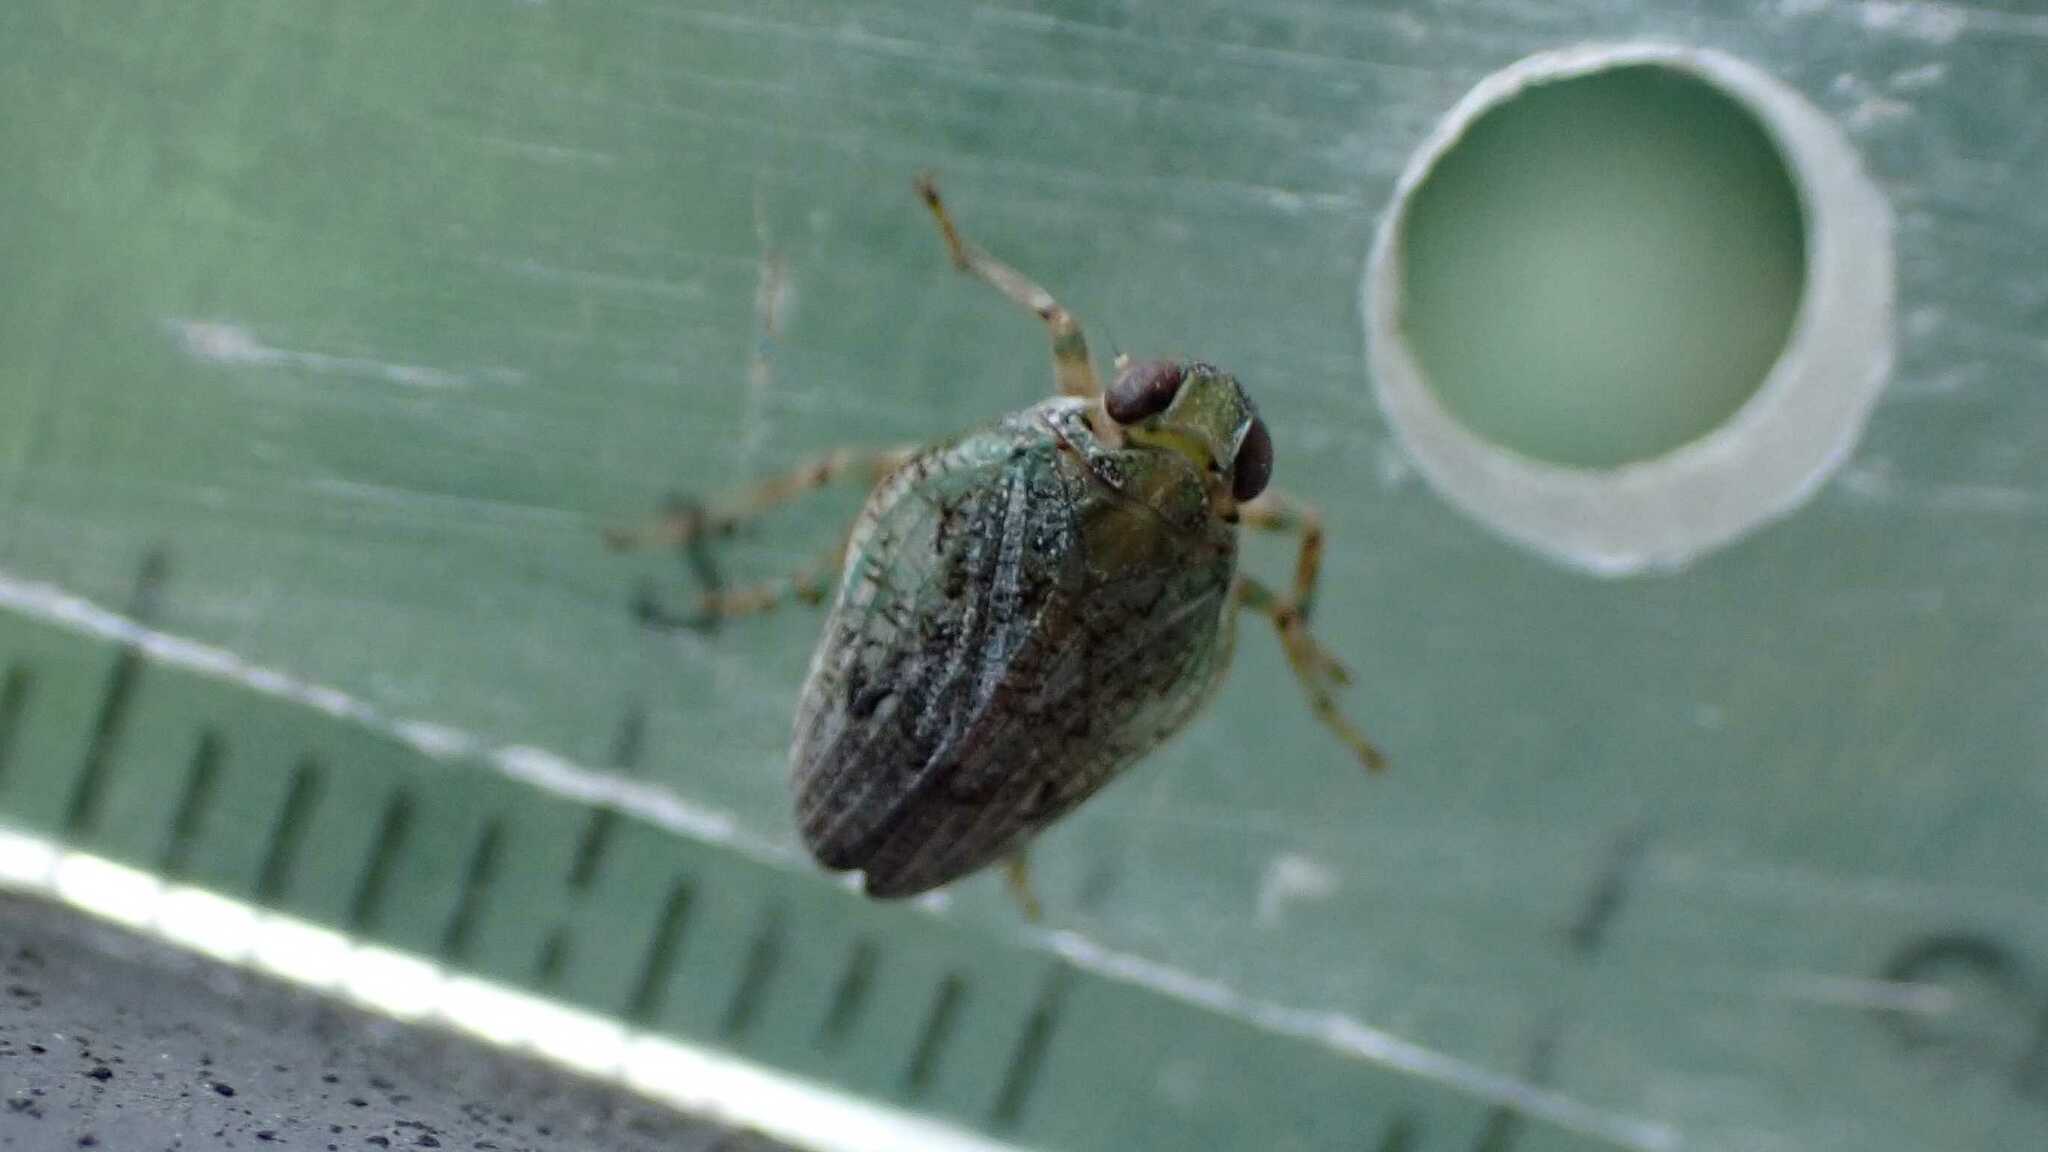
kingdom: Animalia
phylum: Arthropoda
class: Insecta
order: Hemiptera
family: Issidae
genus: Issus
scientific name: Issus coleoptratus
